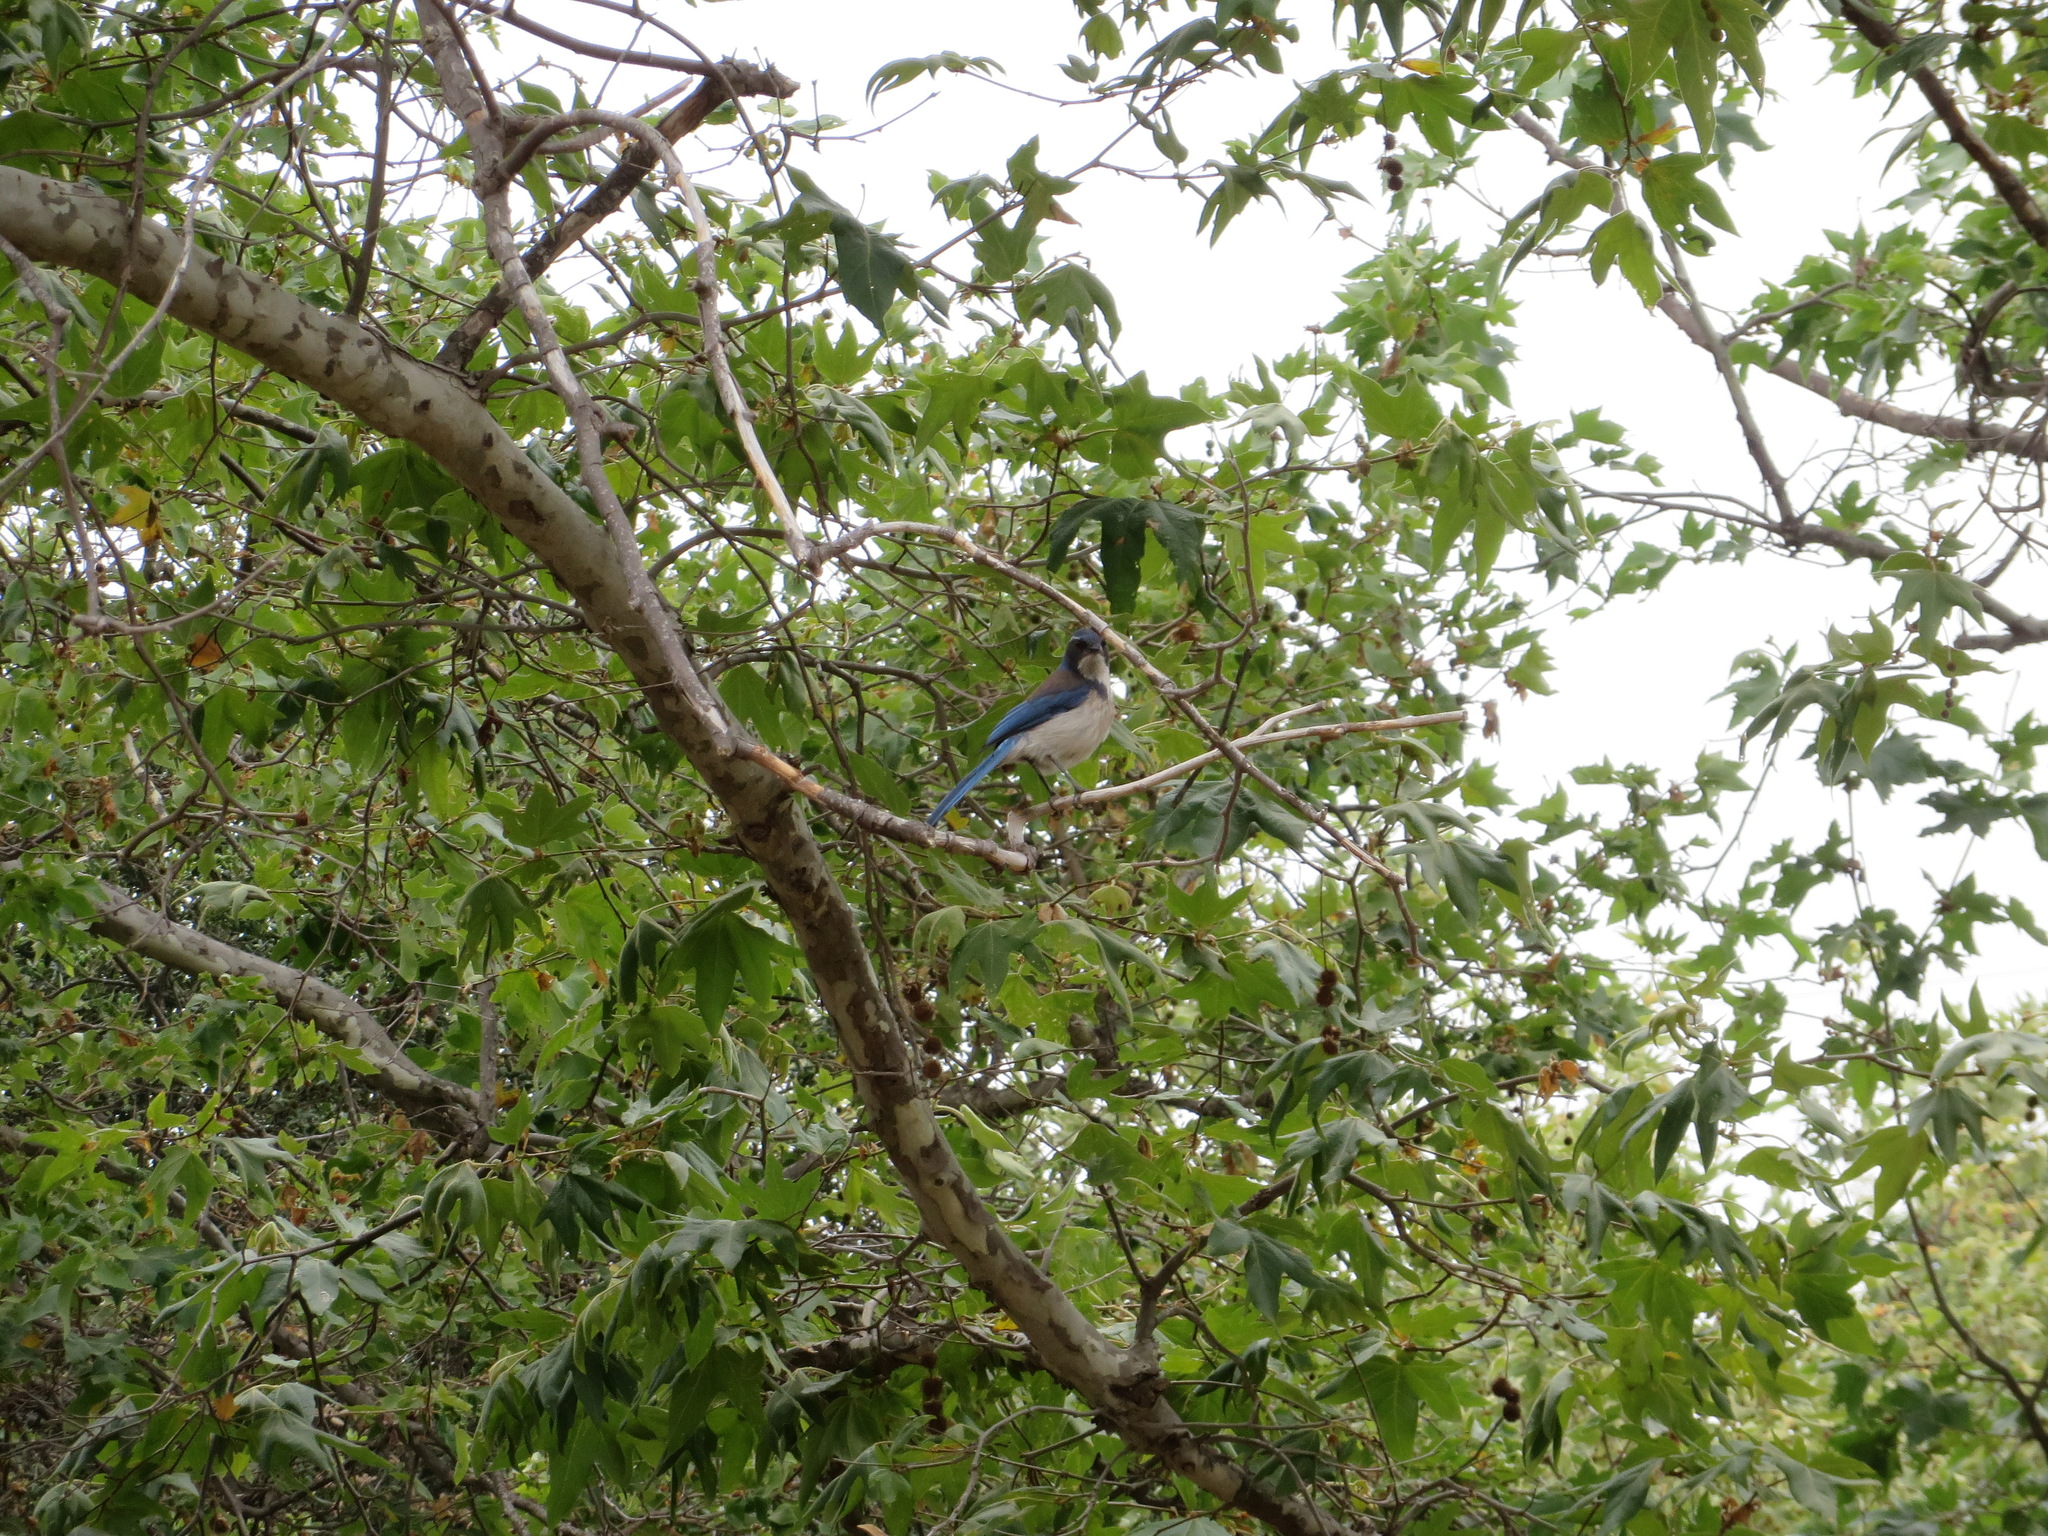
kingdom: Animalia
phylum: Chordata
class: Aves
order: Passeriformes
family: Corvidae
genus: Aphelocoma
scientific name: Aphelocoma californica
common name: California scrub-jay
